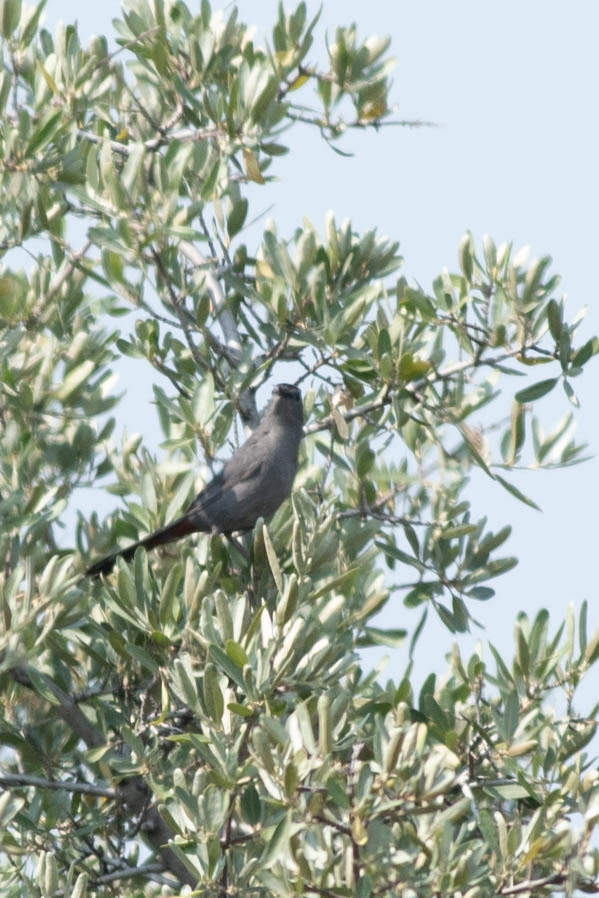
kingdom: Animalia
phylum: Chordata
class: Aves
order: Passeriformes
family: Mimidae
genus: Dumetella
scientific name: Dumetella carolinensis
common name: Gray catbird
